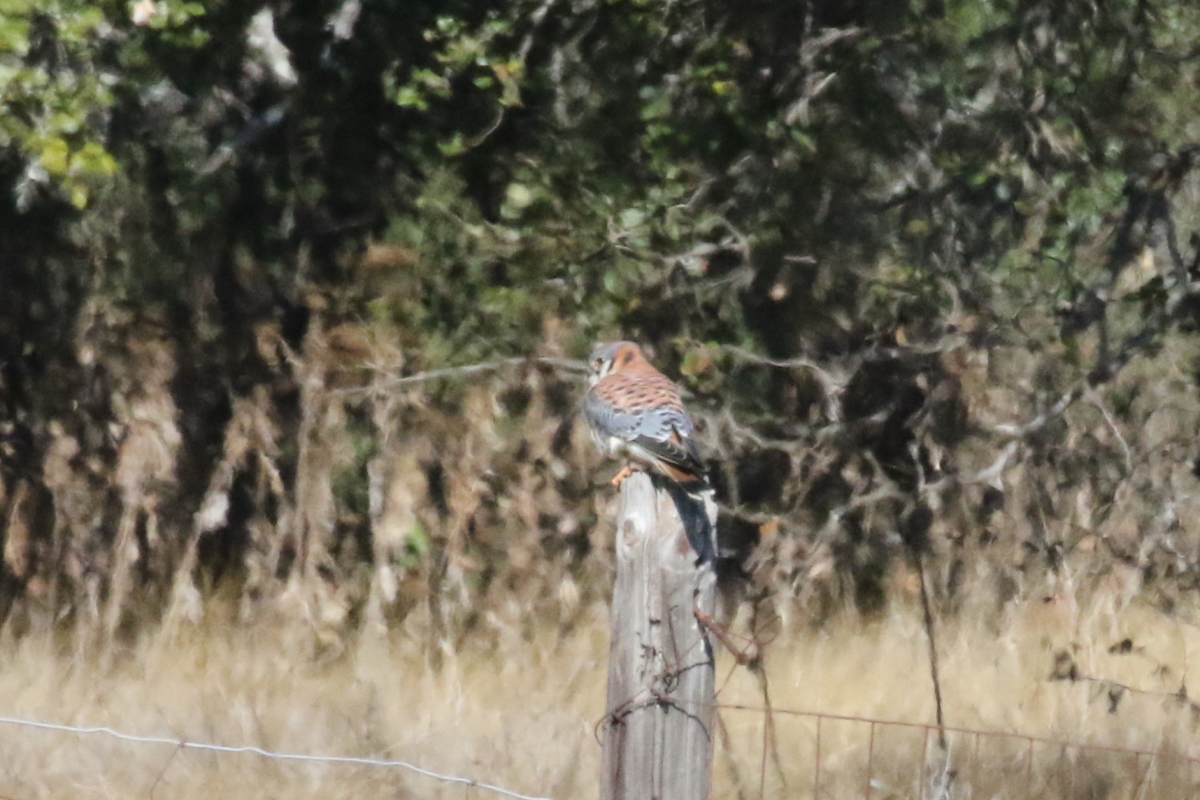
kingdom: Animalia
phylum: Chordata
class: Aves
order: Falconiformes
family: Falconidae
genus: Falco
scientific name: Falco sparverius
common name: American kestrel
